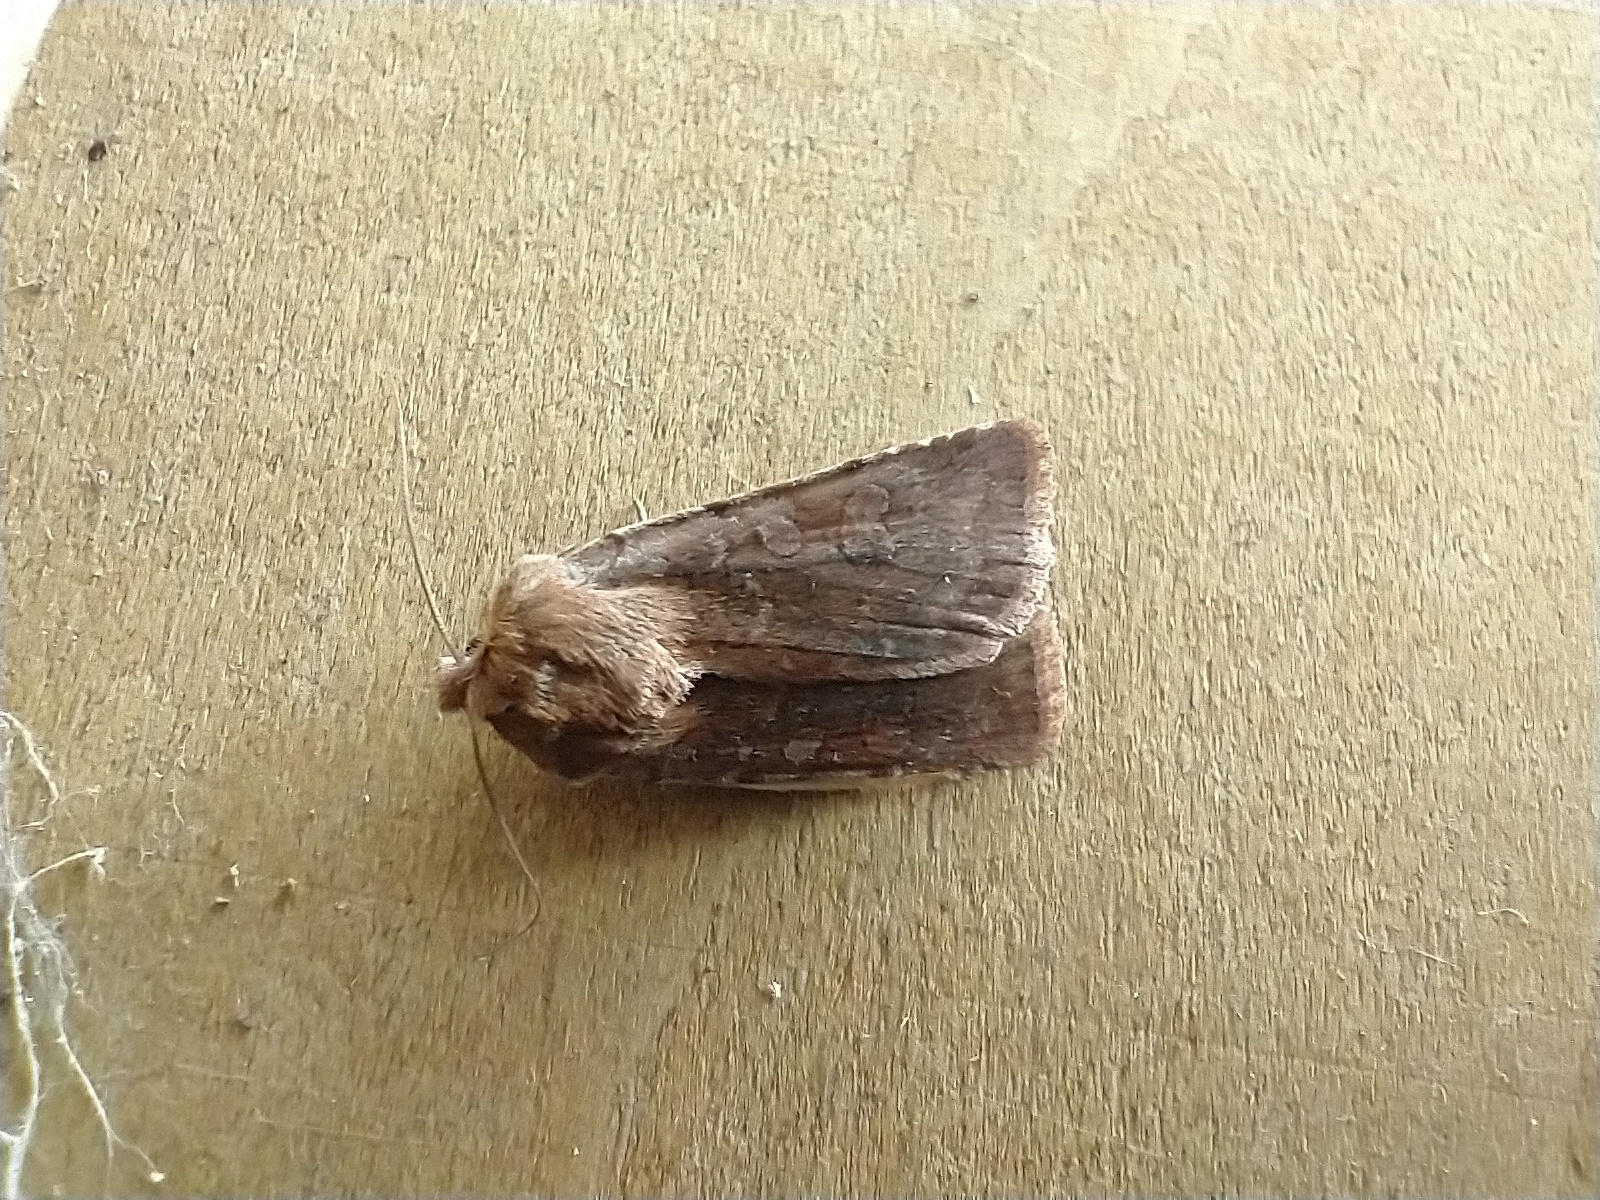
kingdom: Animalia
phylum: Arthropoda
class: Insecta
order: Lepidoptera
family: Noctuidae
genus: Cerastis
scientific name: Cerastis rubricosa
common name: Red chestnut
